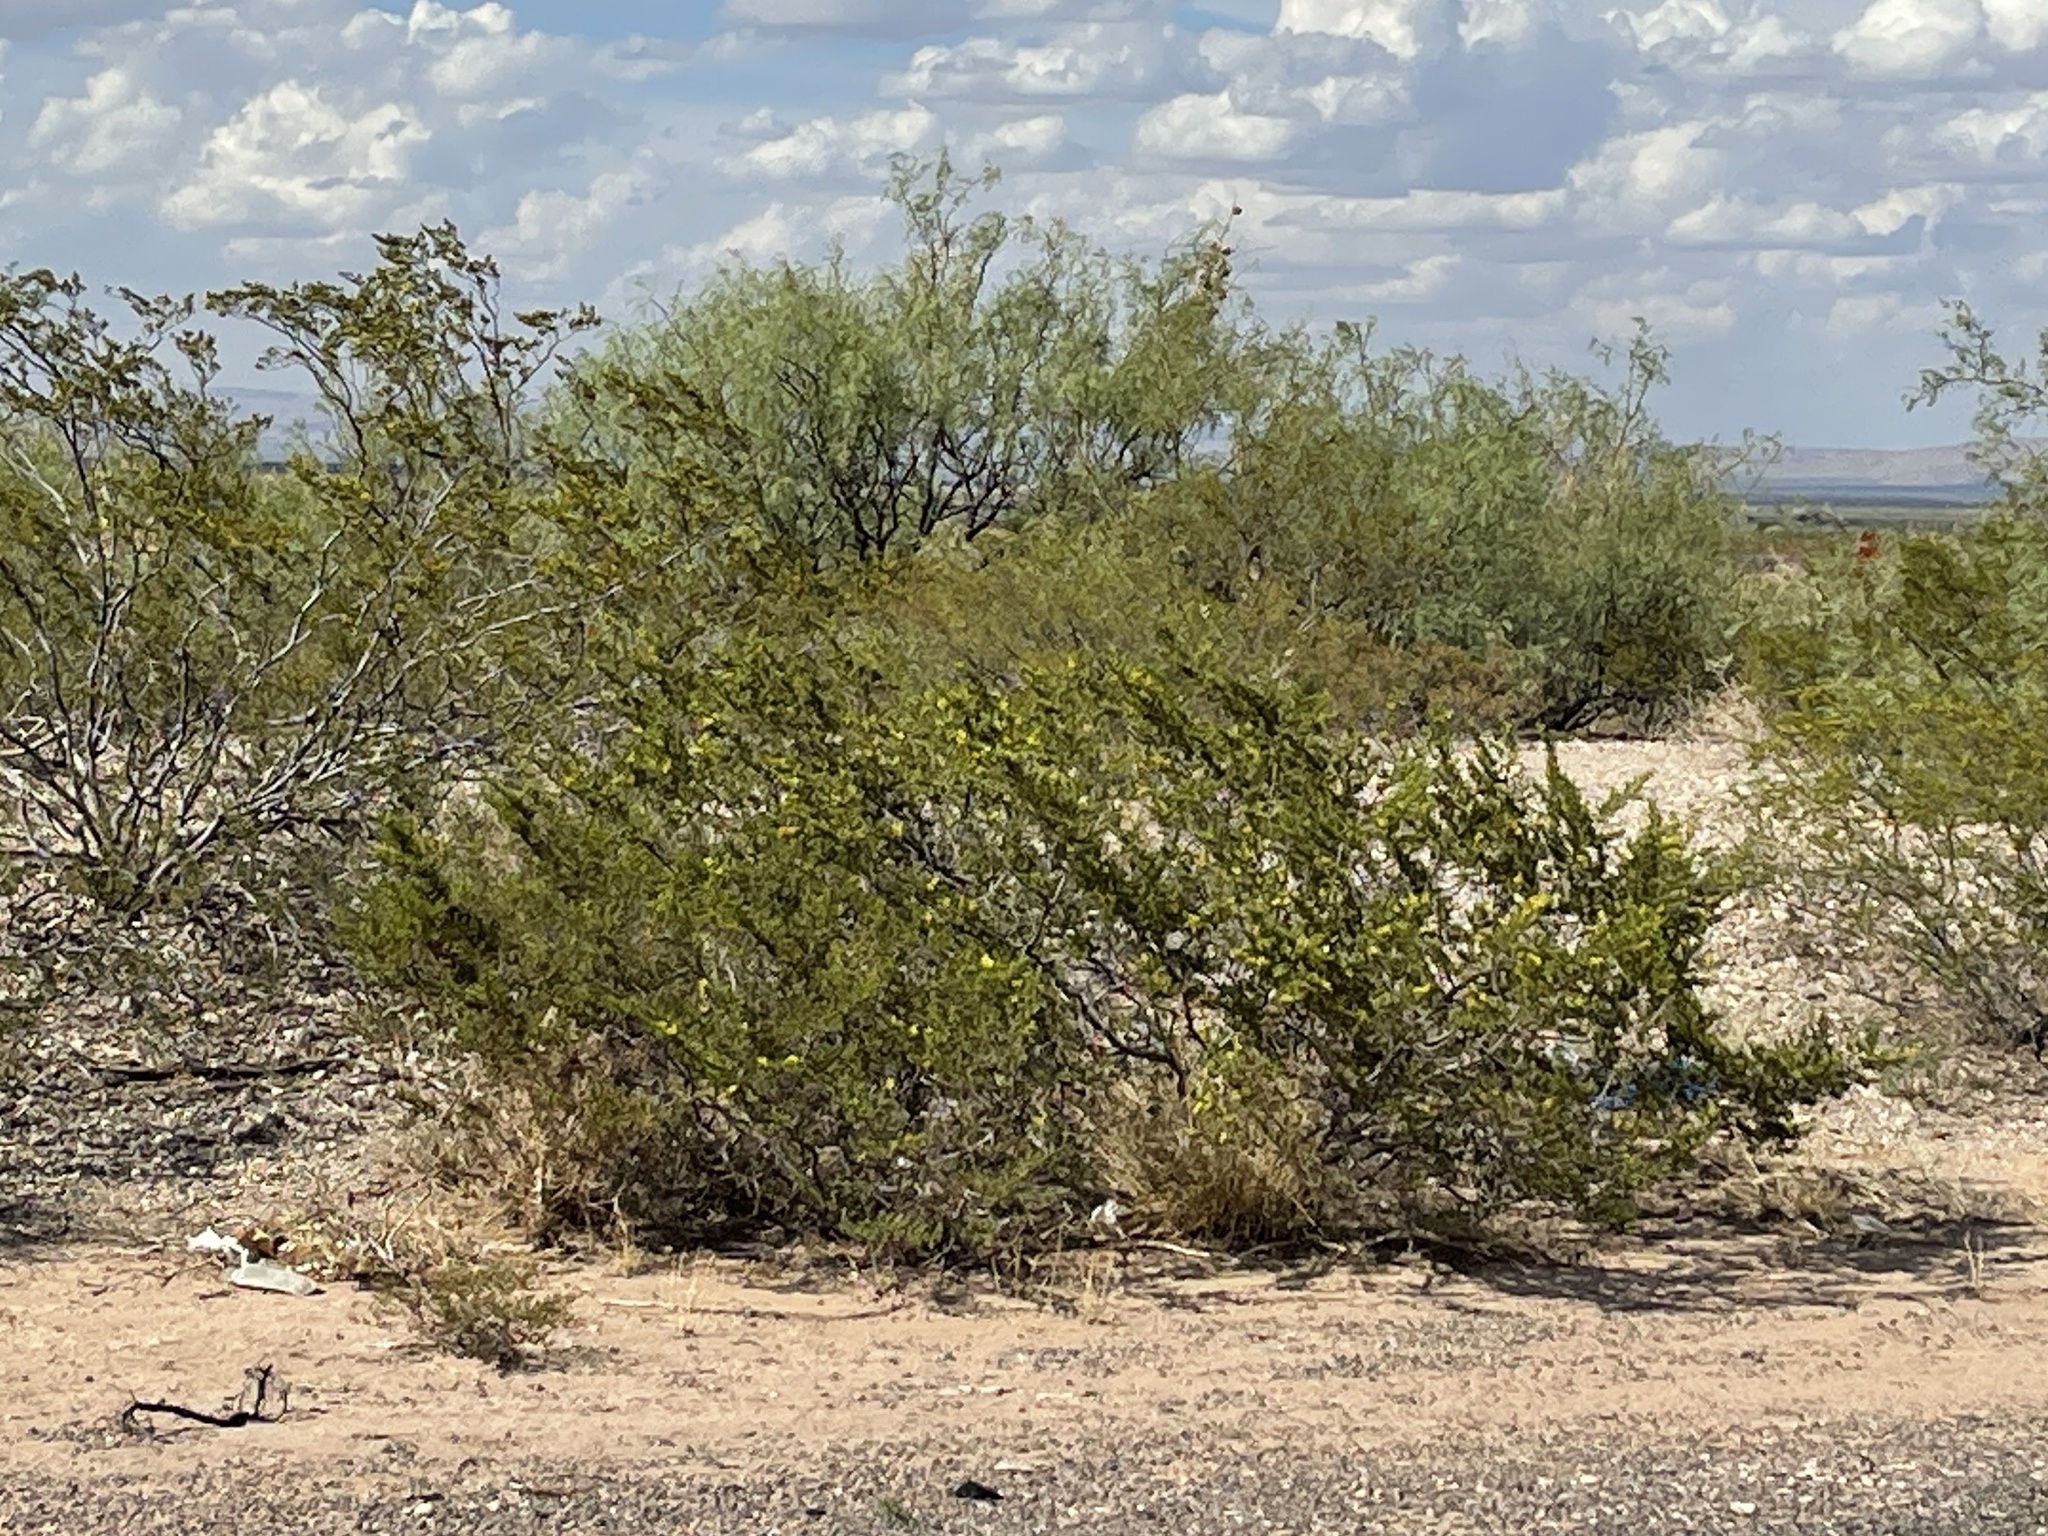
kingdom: Plantae
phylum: Tracheophyta
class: Magnoliopsida
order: Zygophyllales
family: Zygophyllaceae
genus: Larrea
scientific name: Larrea tridentata
